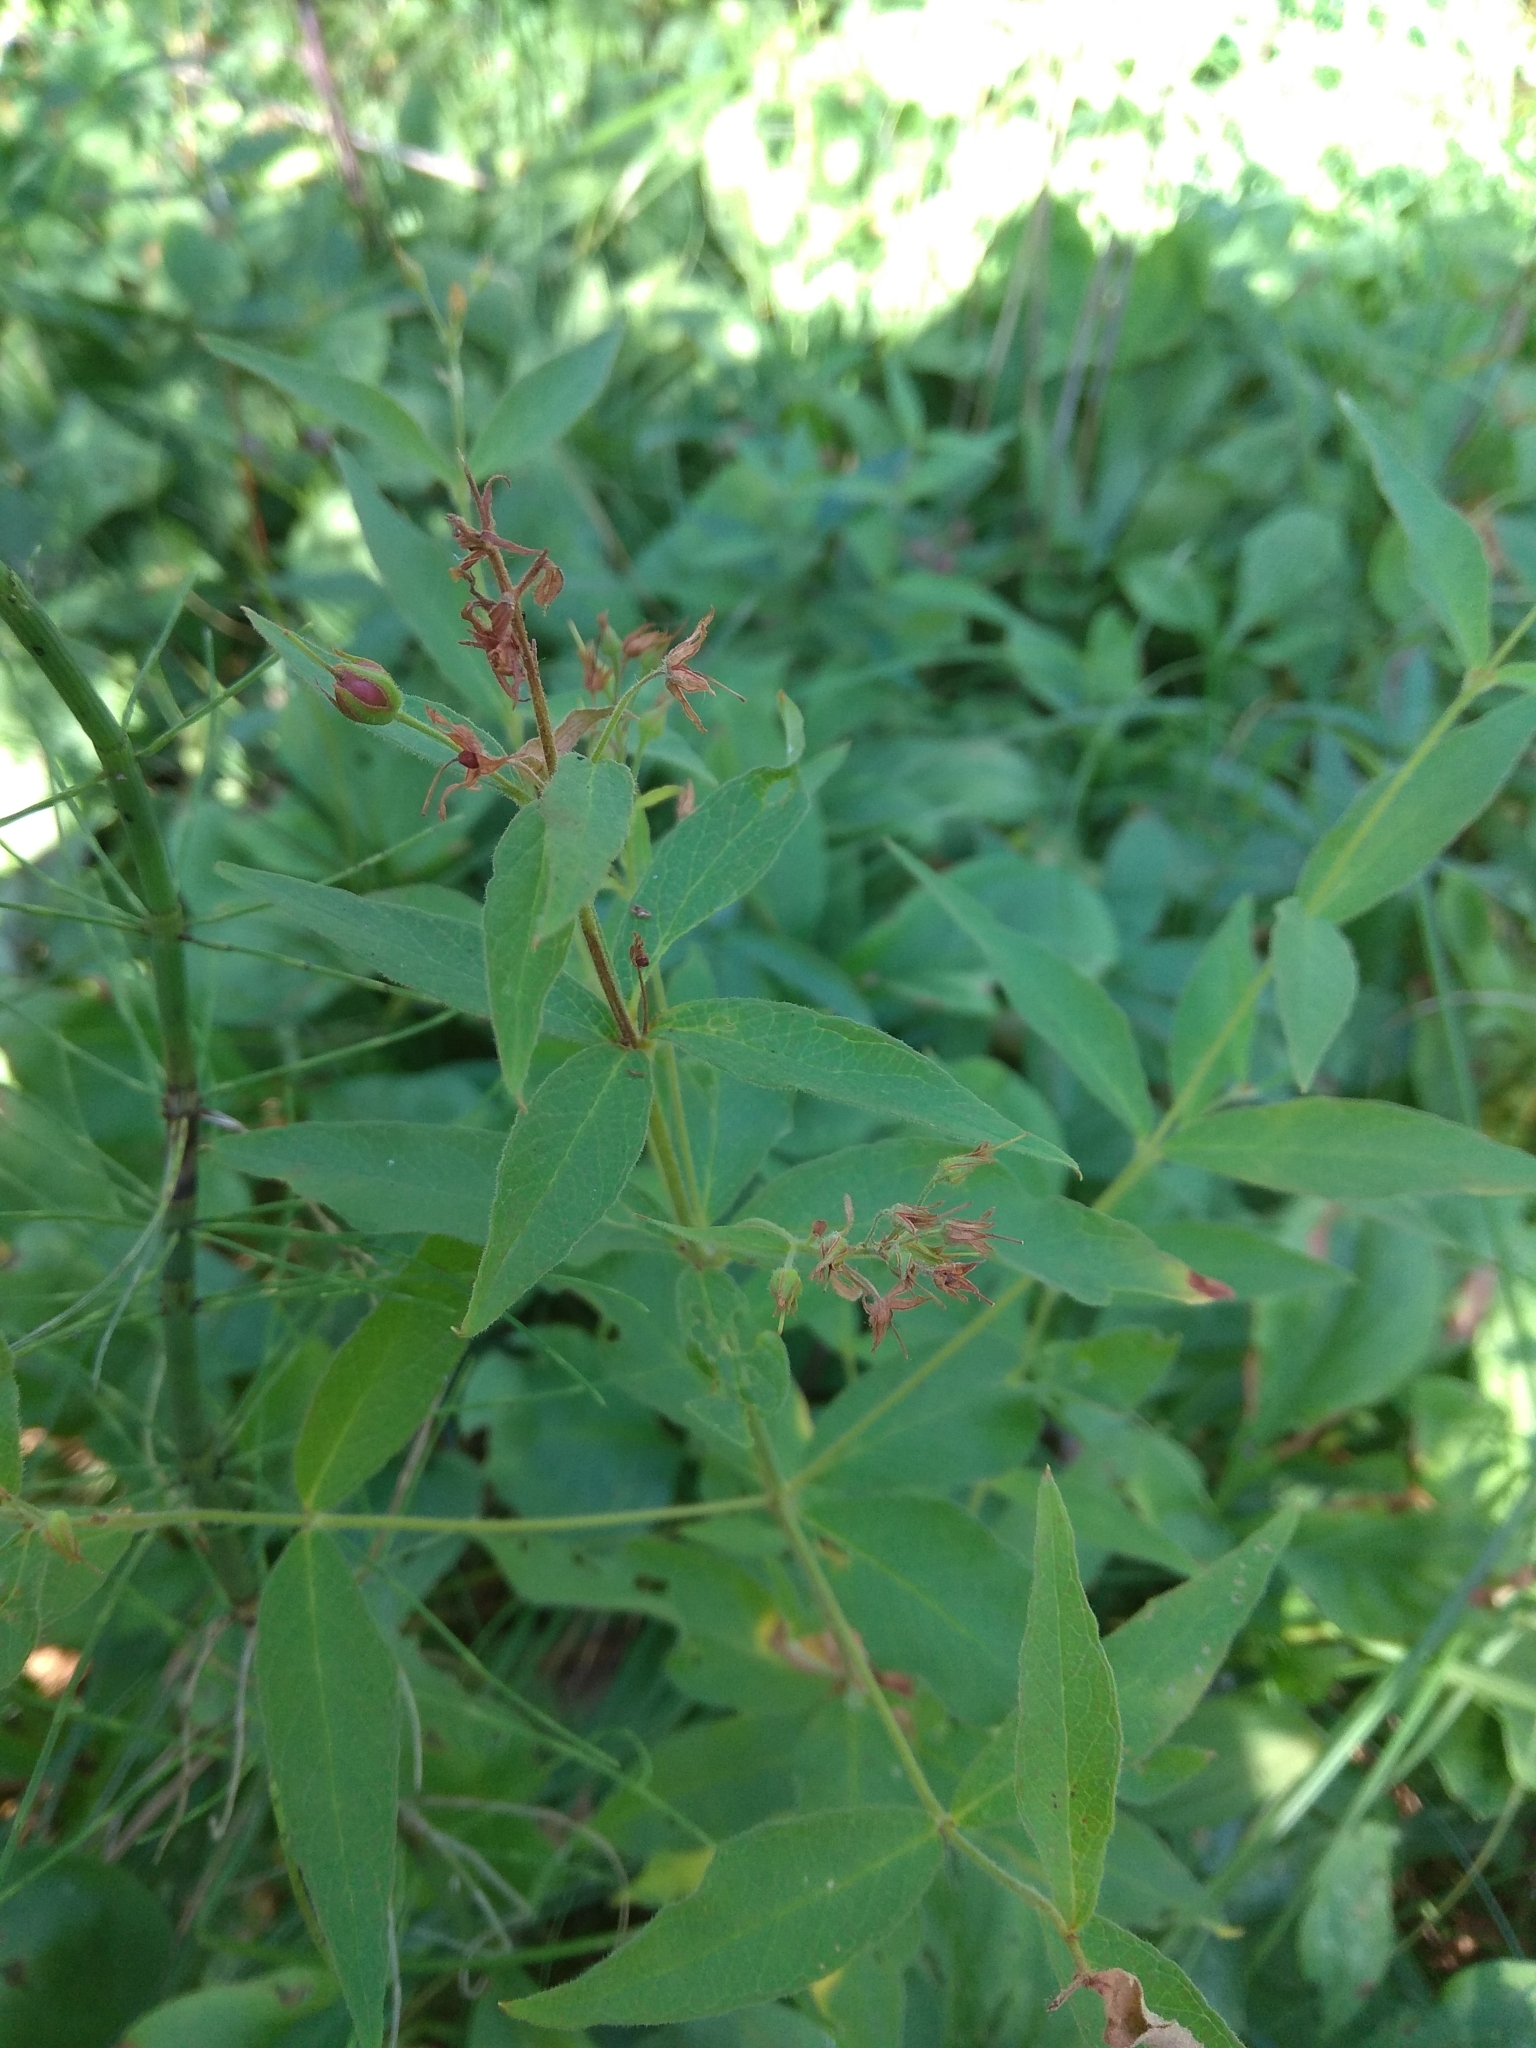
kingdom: Plantae
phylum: Tracheophyta
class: Magnoliopsida
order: Ericales
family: Primulaceae
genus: Lysimachia
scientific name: Lysimachia vulgaris
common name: Yellow loosestrife
